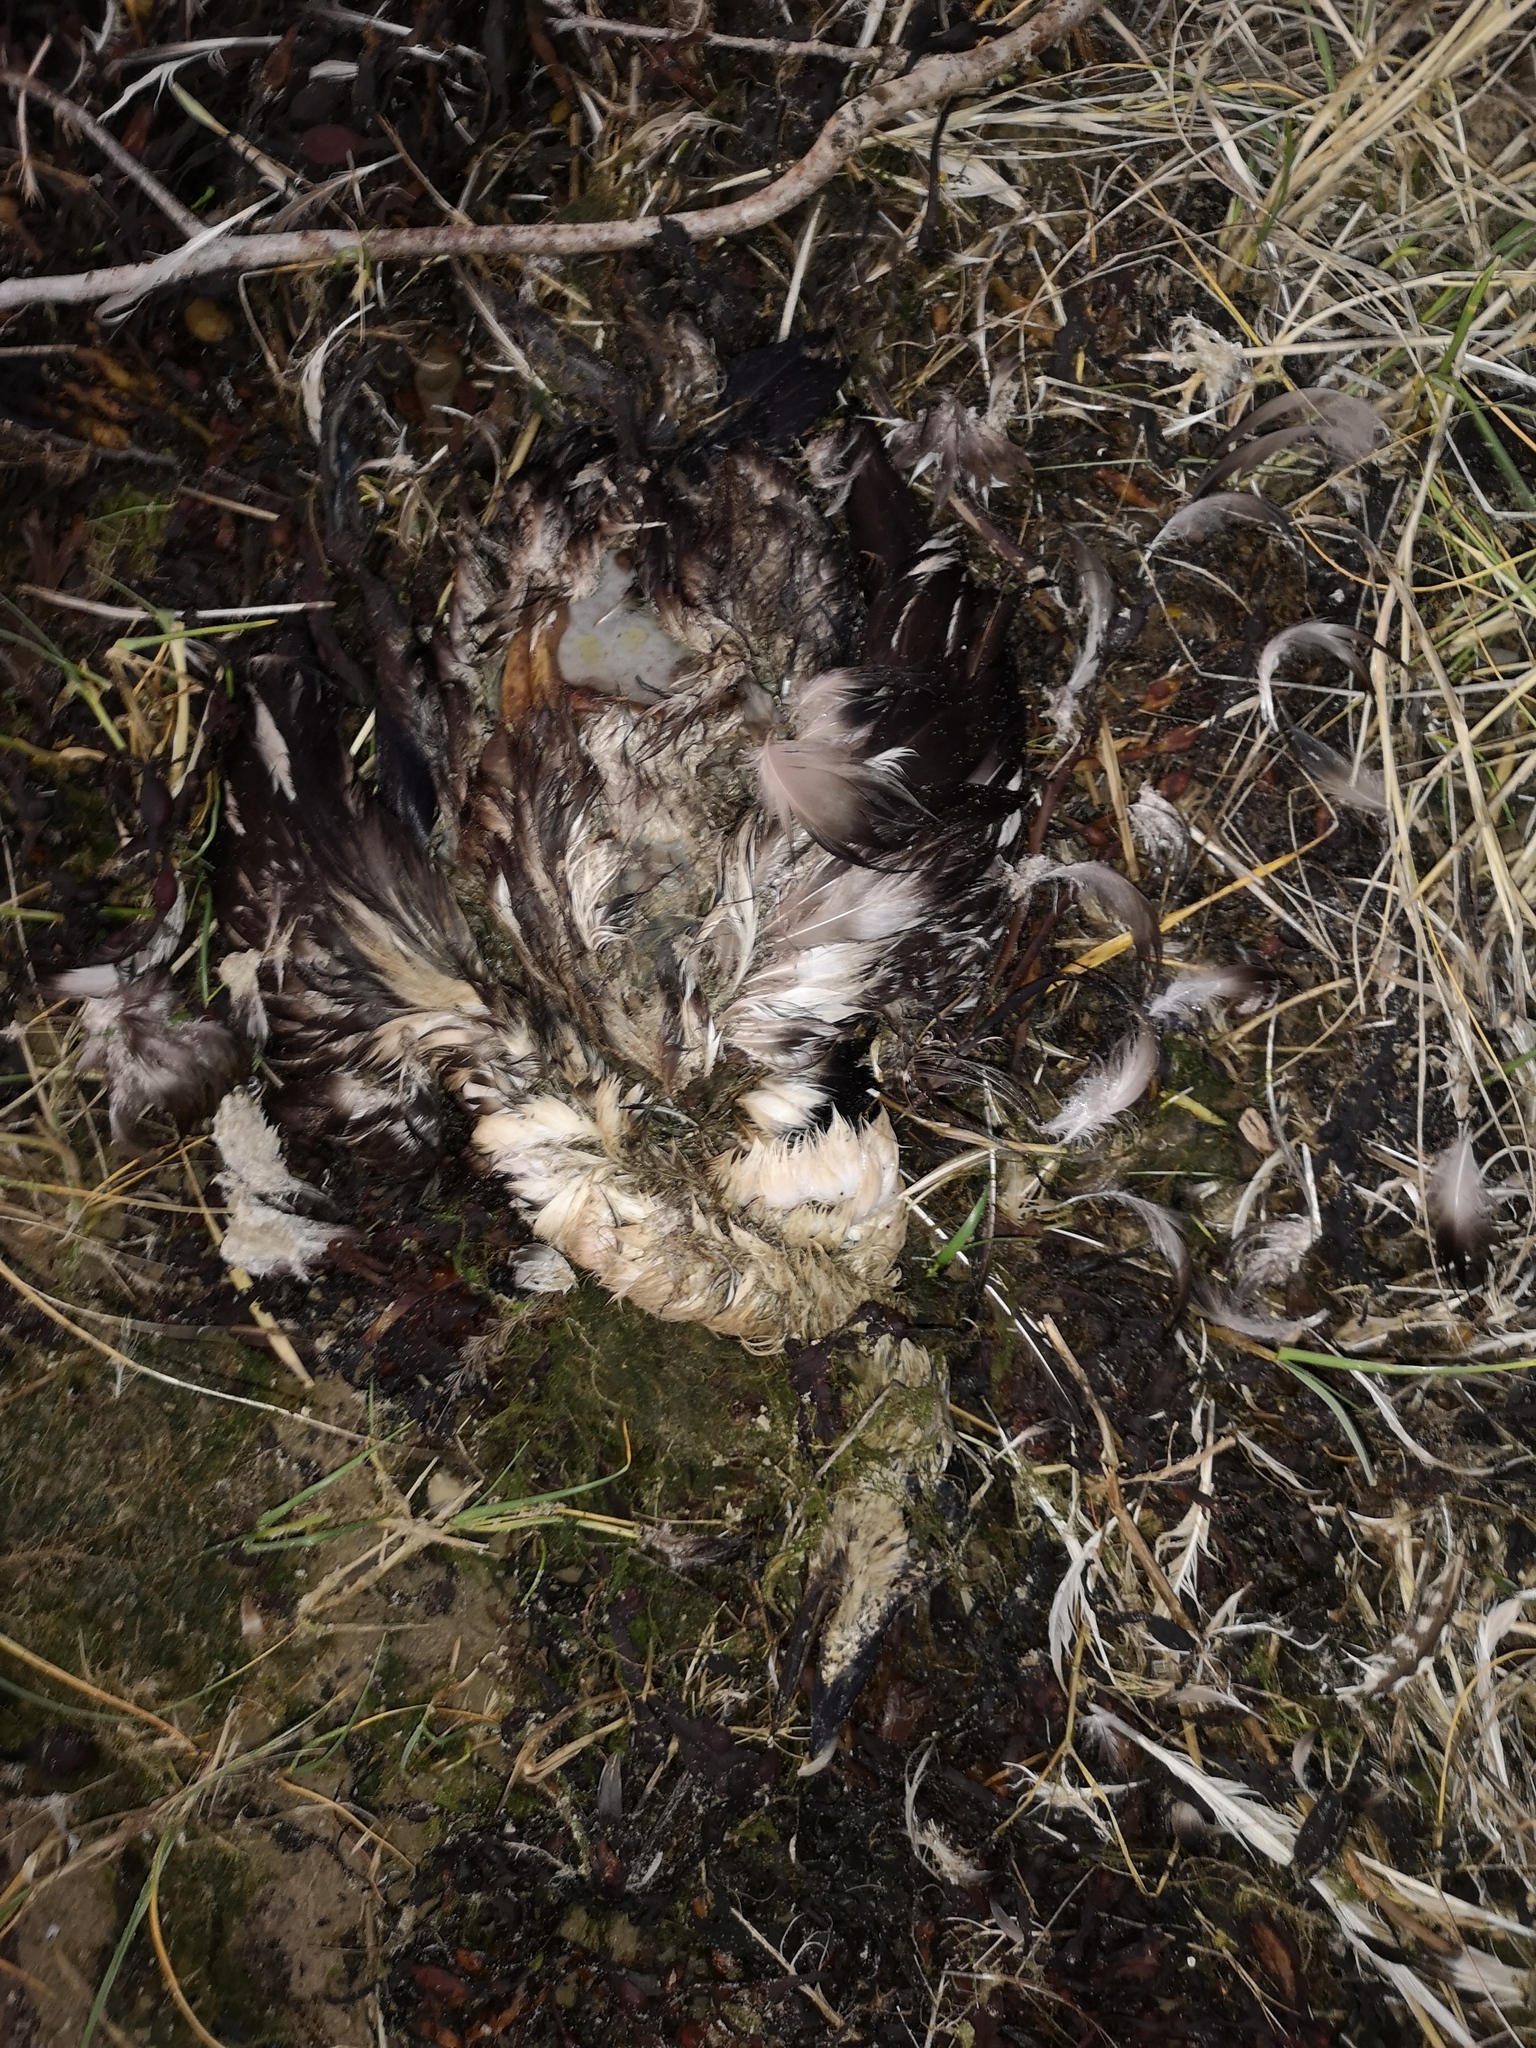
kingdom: Animalia
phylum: Chordata
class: Aves
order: Anseriformes
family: Anatidae
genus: Somateria
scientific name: Somateria mollissima
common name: Common eider
